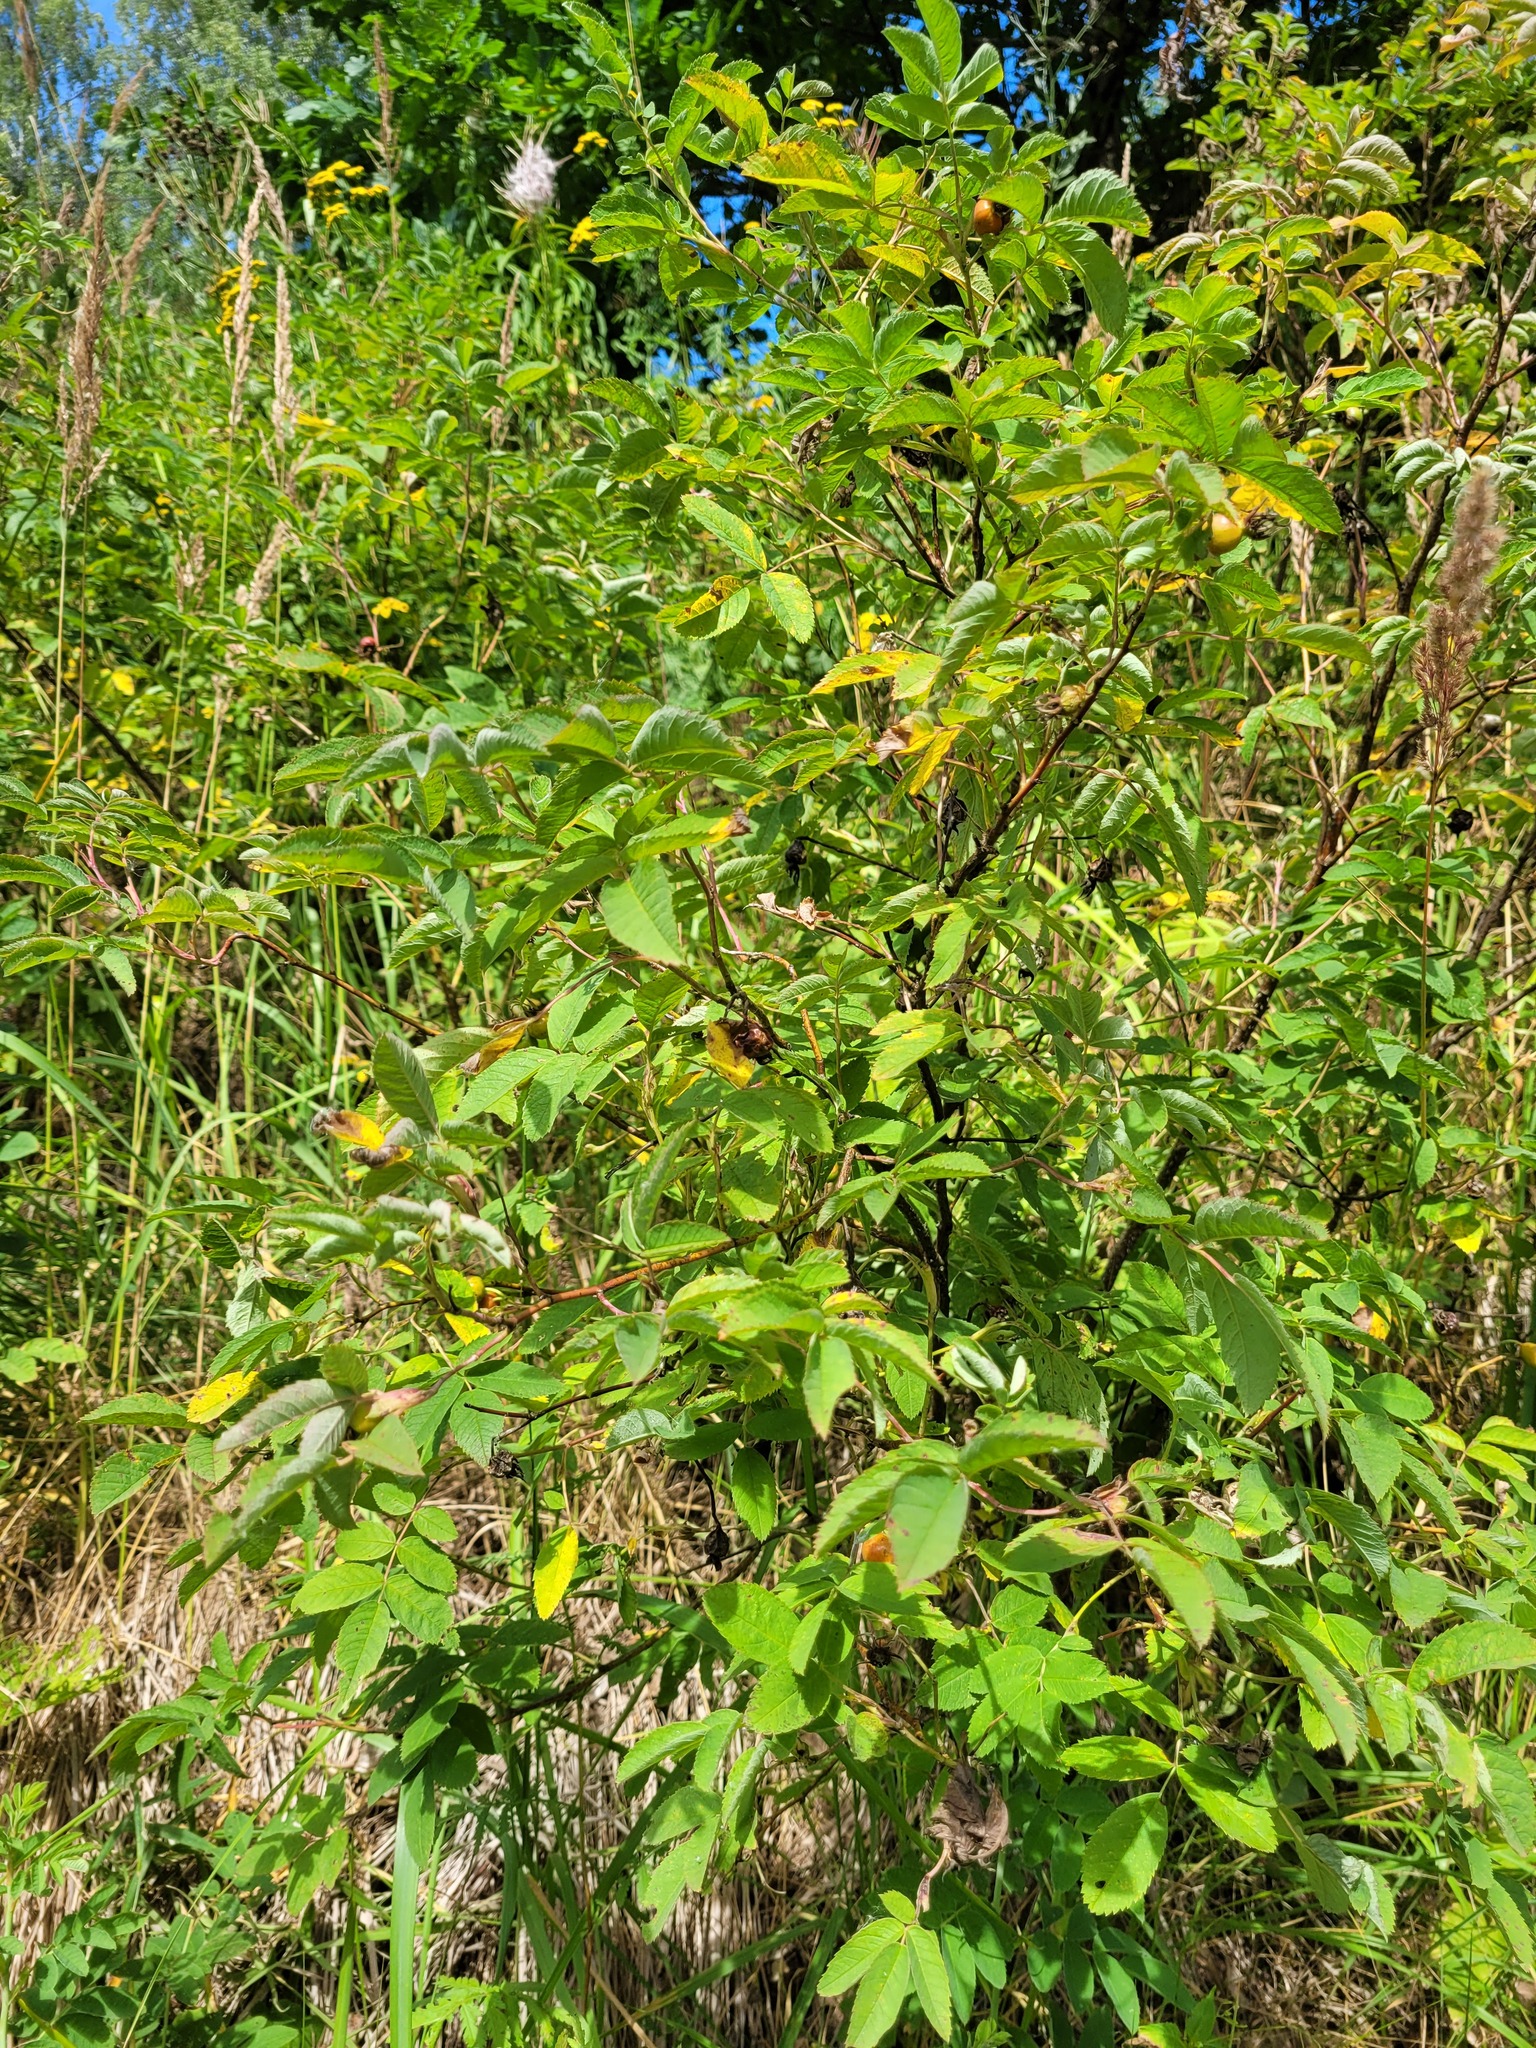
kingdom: Plantae
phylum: Tracheophyta
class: Magnoliopsida
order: Rosales
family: Rosaceae
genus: Rosa
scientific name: Rosa majalis
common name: Cinnamon rose
